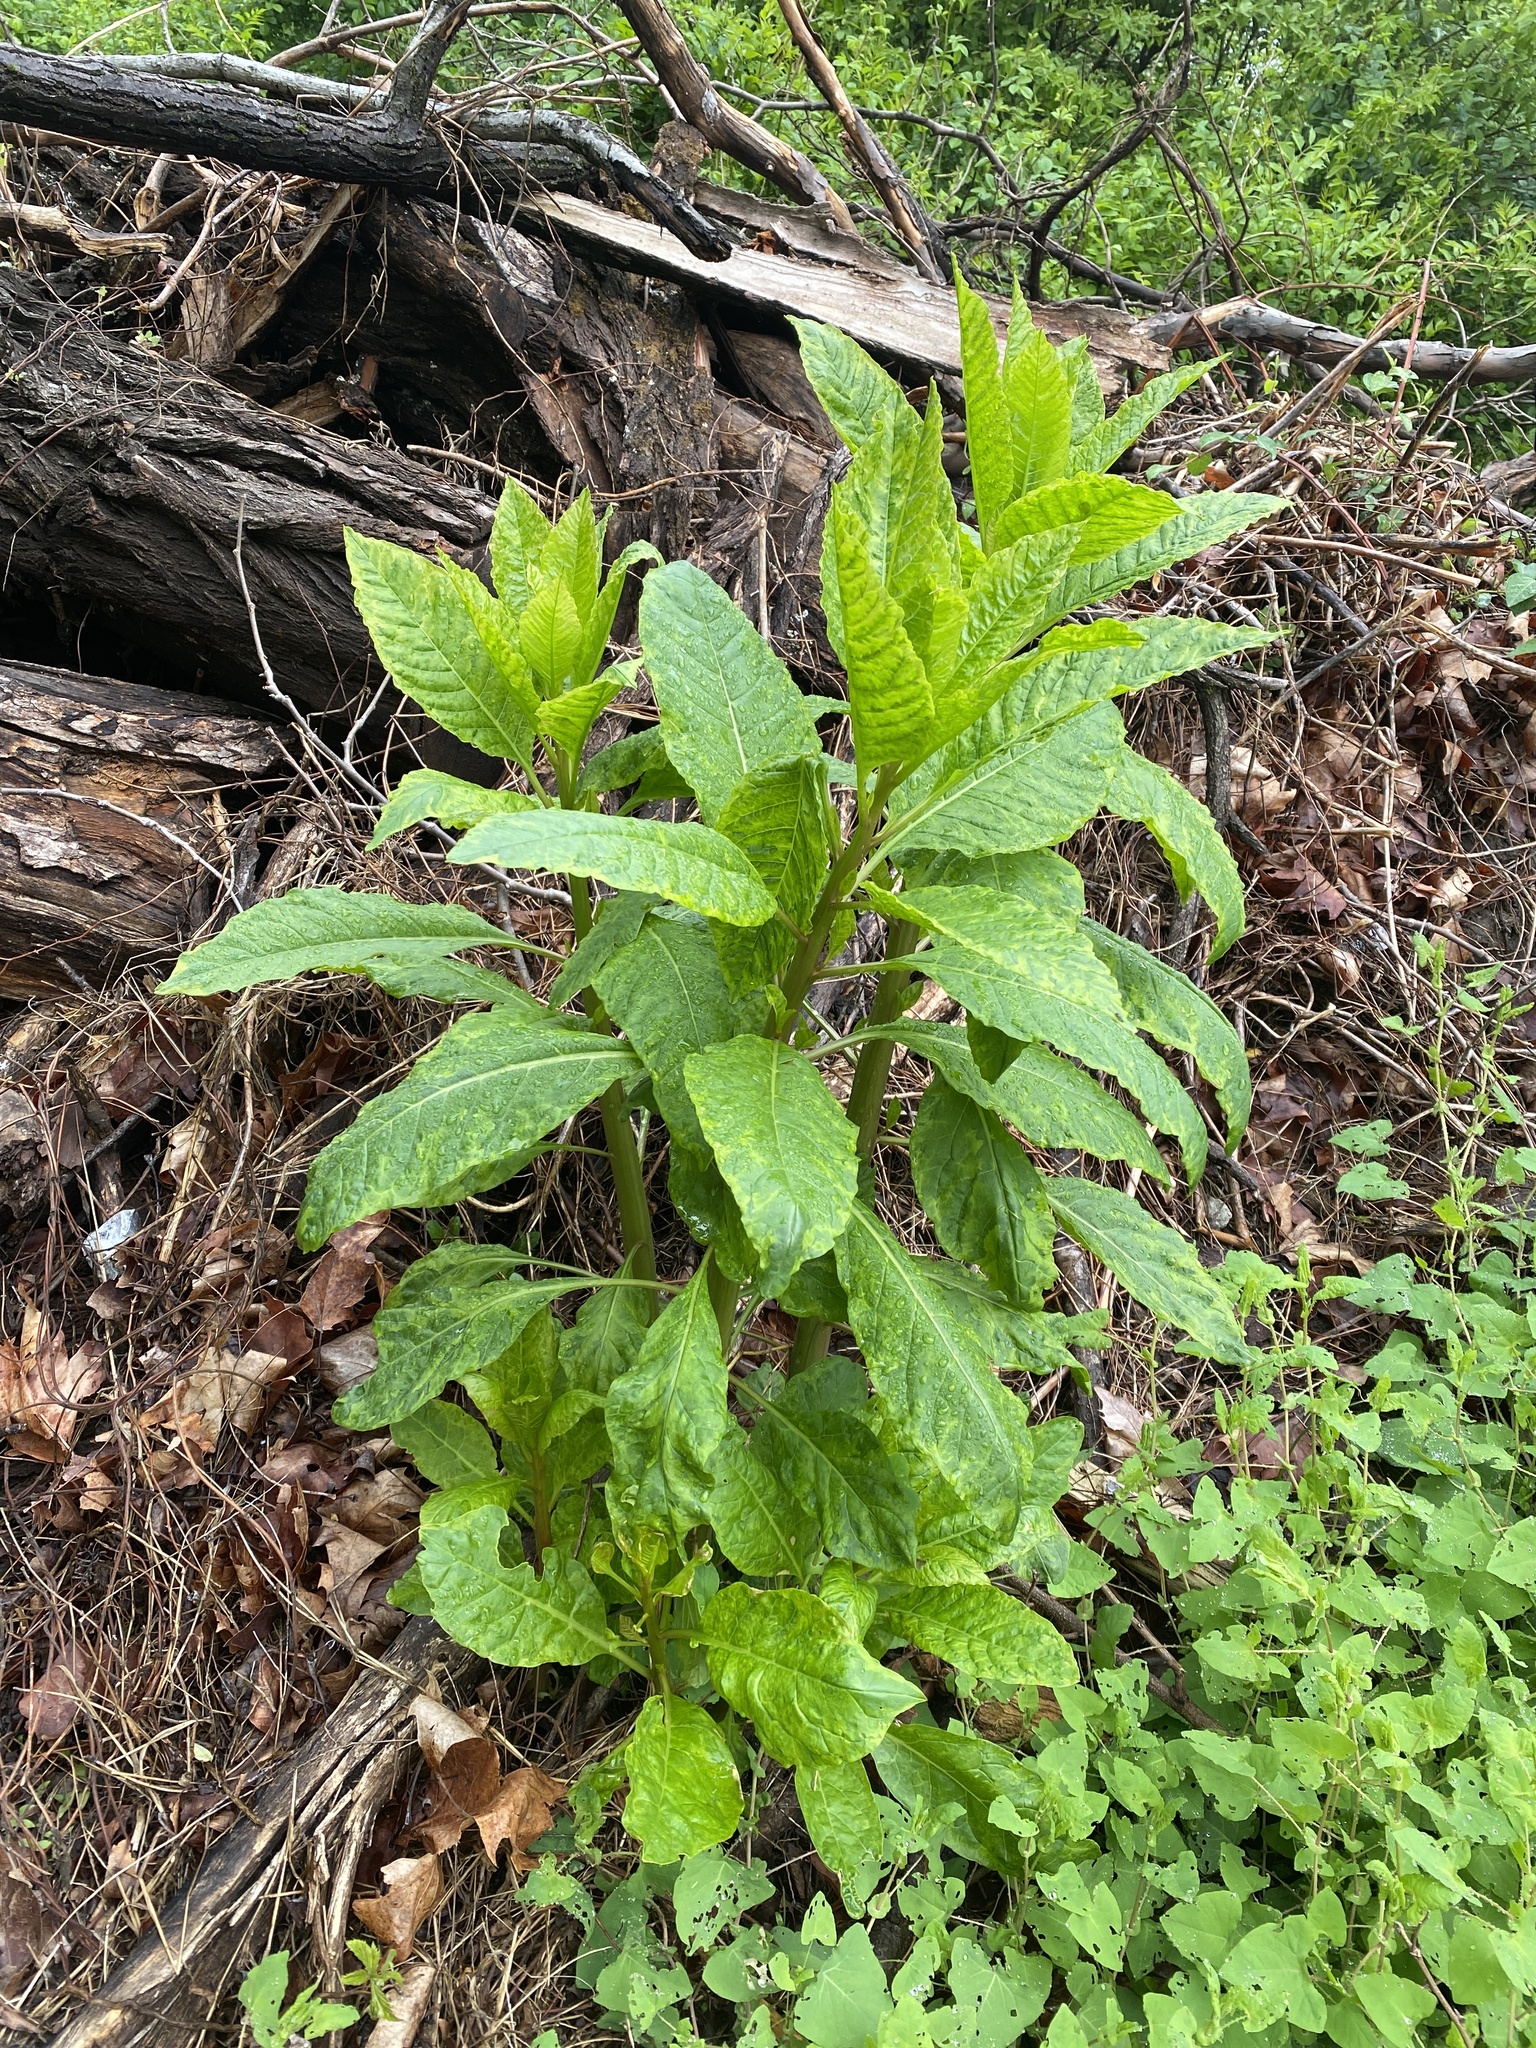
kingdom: Viruses
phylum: Pisuviricota
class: Stelpaviricetes
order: Patatavirales
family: Potyviridae
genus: Potyvirus
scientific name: Potyvirus Pokeweed mosaic virus
